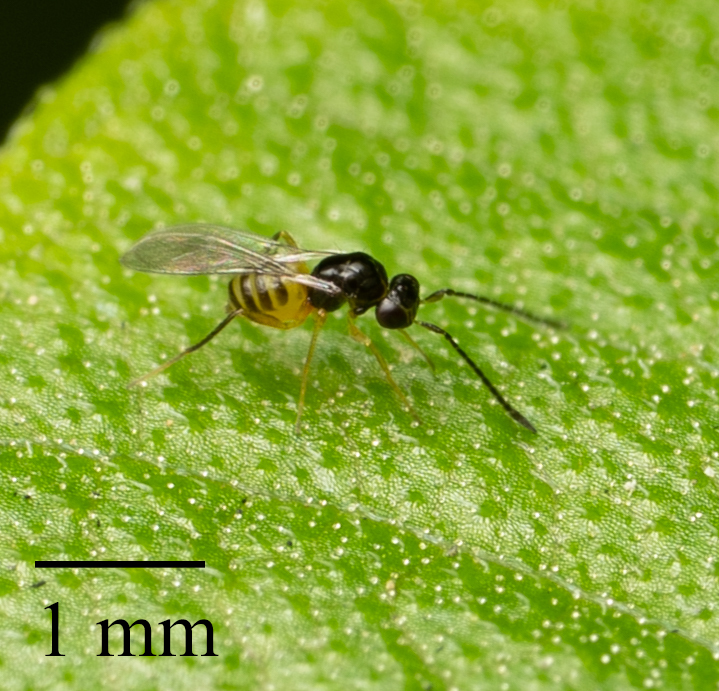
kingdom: Animalia
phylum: Arthropoda
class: Insecta
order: Hymenoptera
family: Mymaridae
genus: Cosmocomoidea
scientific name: Cosmocomoidea ashmeadi
